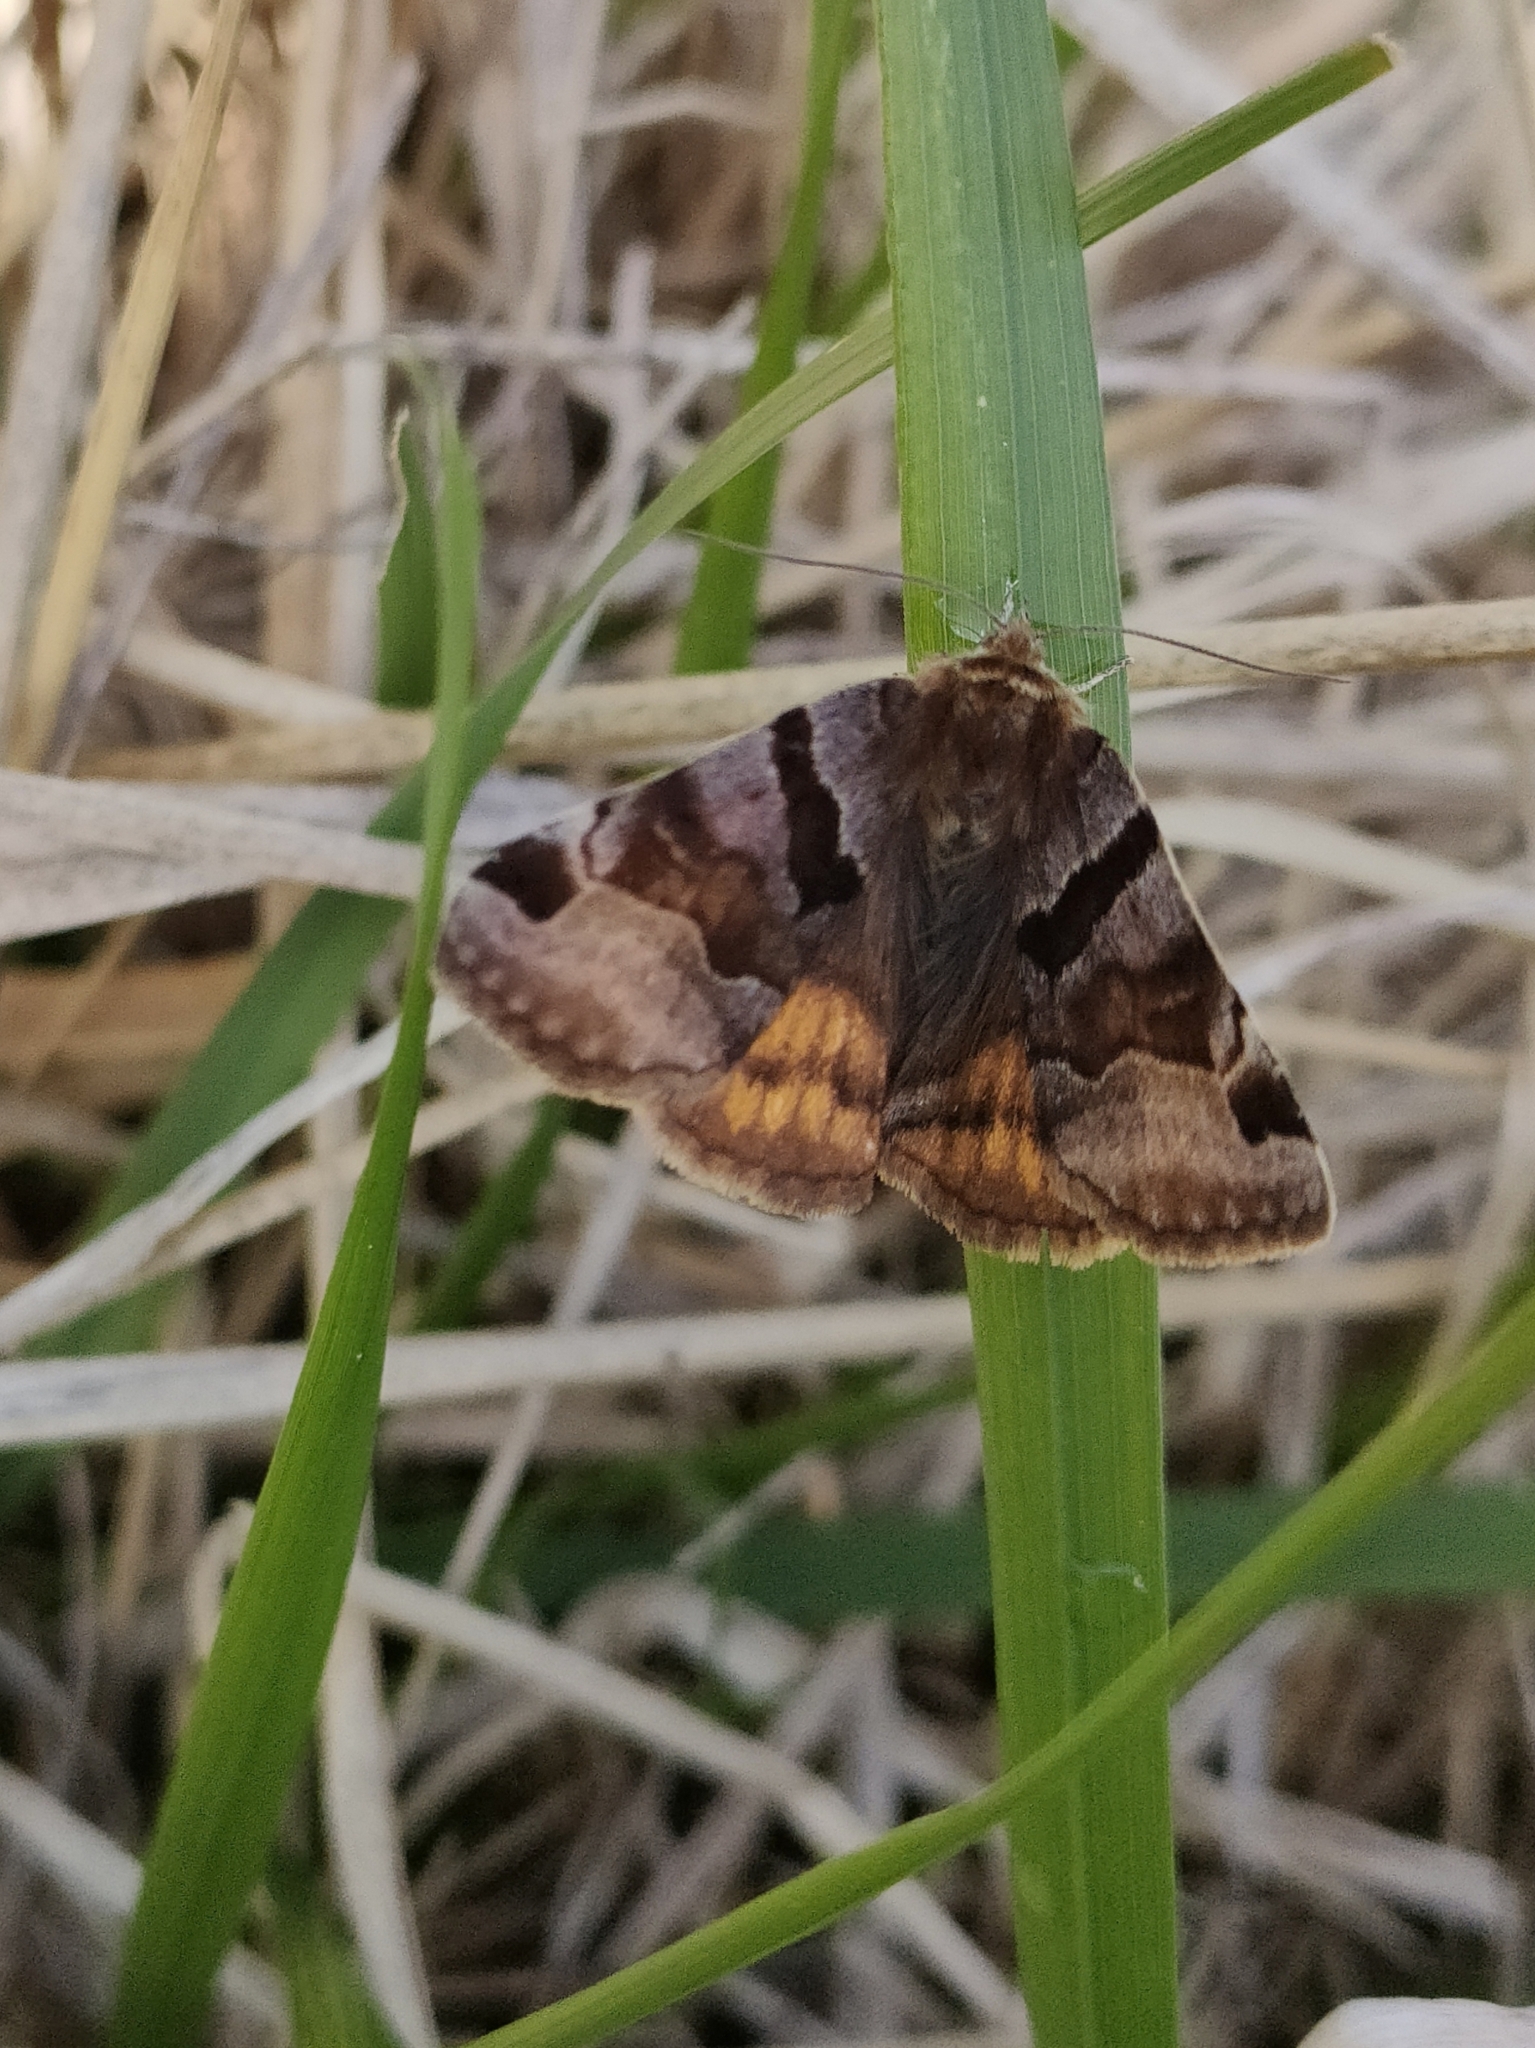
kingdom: Animalia
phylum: Arthropoda
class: Insecta
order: Lepidoptera
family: Erebidae
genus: Euclidia
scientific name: Euclidia glyphica
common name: Burnet companion
